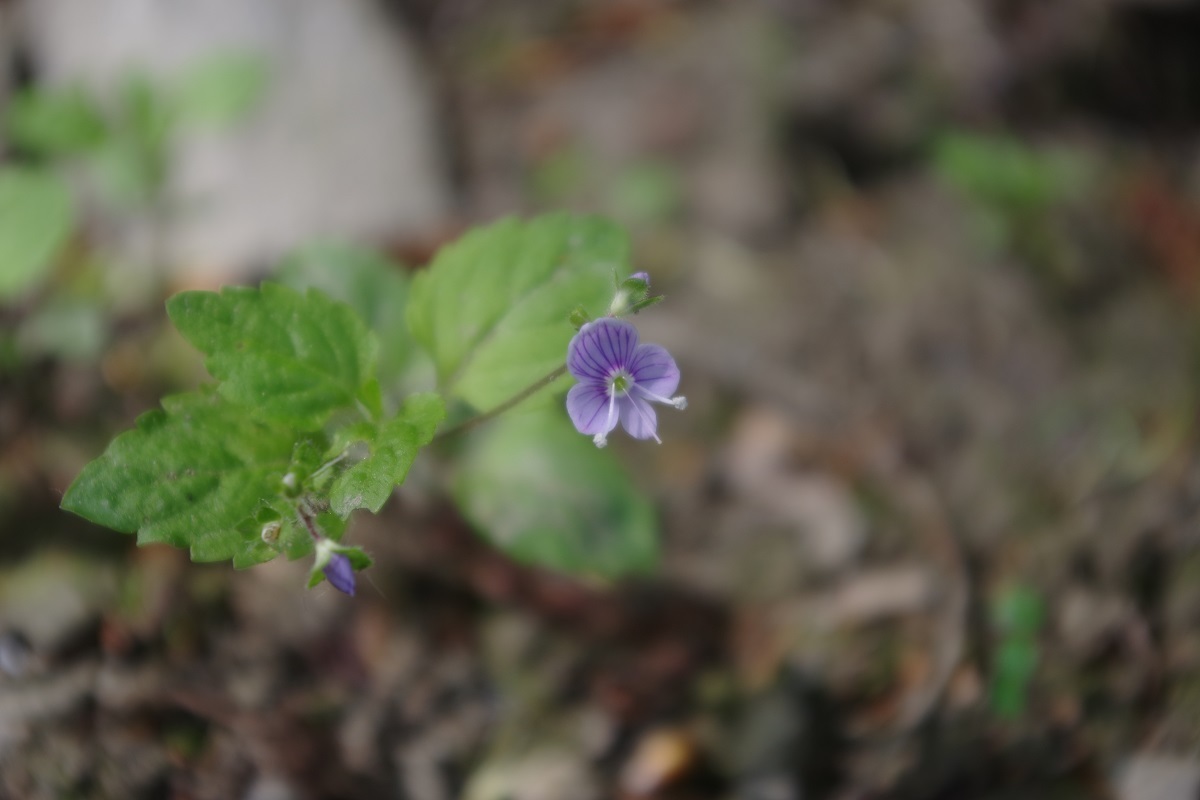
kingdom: Plantae
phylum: Tracheophyta
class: Magnoliopsida
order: Lamiales
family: Plantaginaceae
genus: Veronica
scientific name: Veronica montana
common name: Wood speedwell
